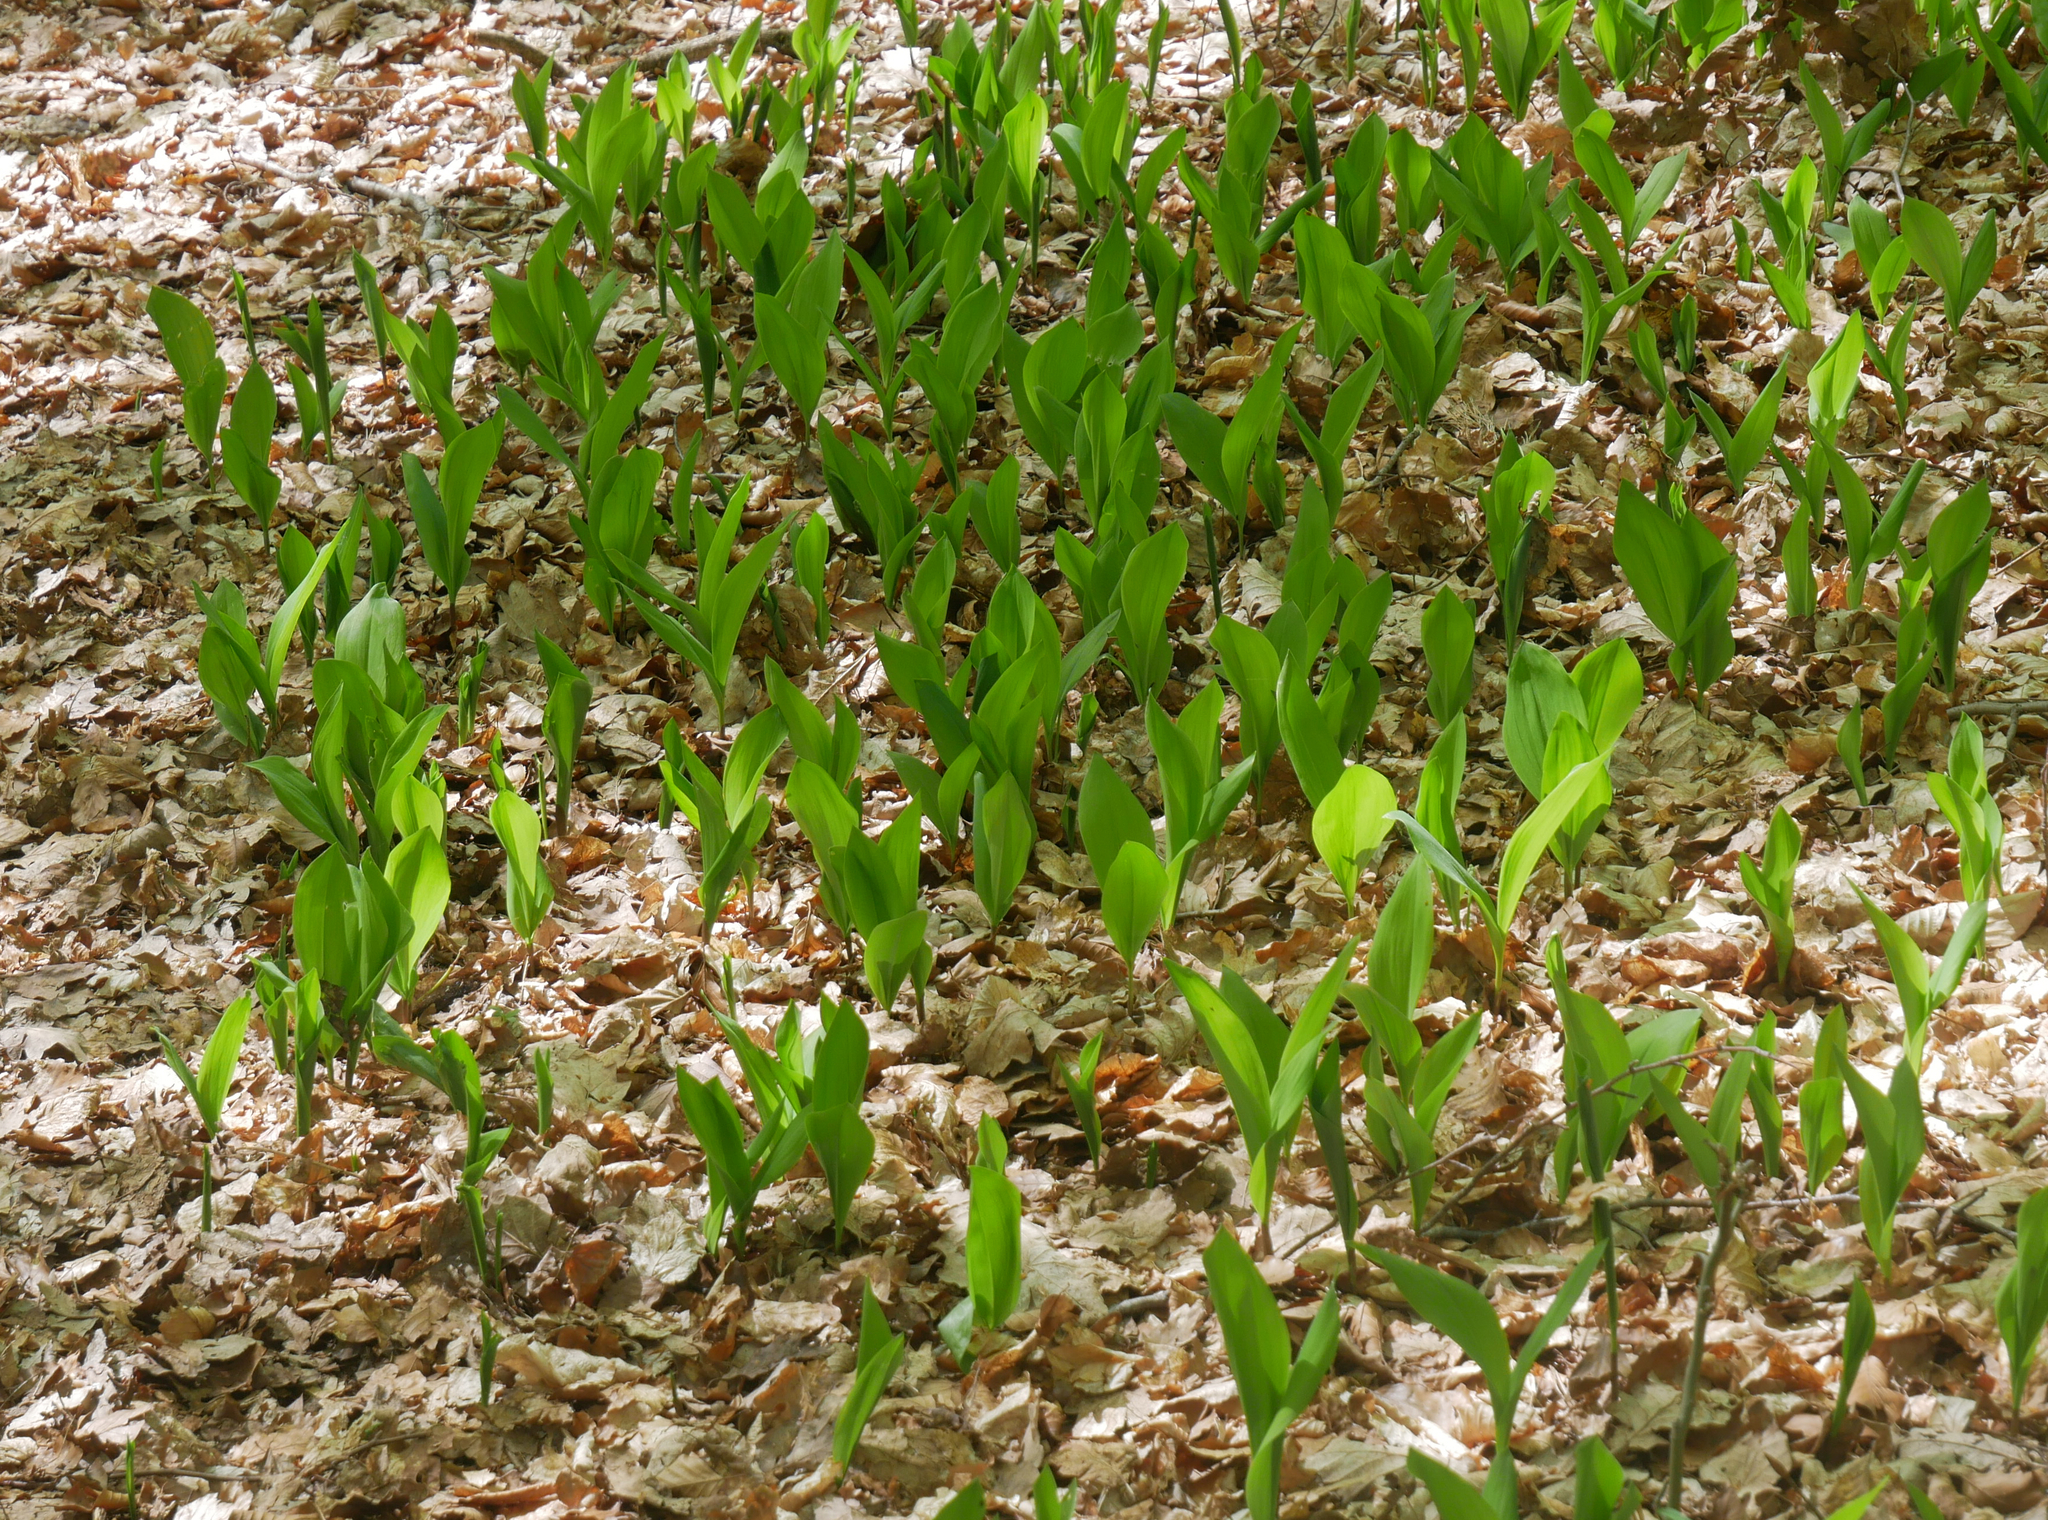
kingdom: Plantae
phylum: Tracheophyta
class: Liliopsida
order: Asparagales
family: Asparagaceae
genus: Convallaria
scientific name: Convallaria majalis
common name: Lily-of-the-valley
